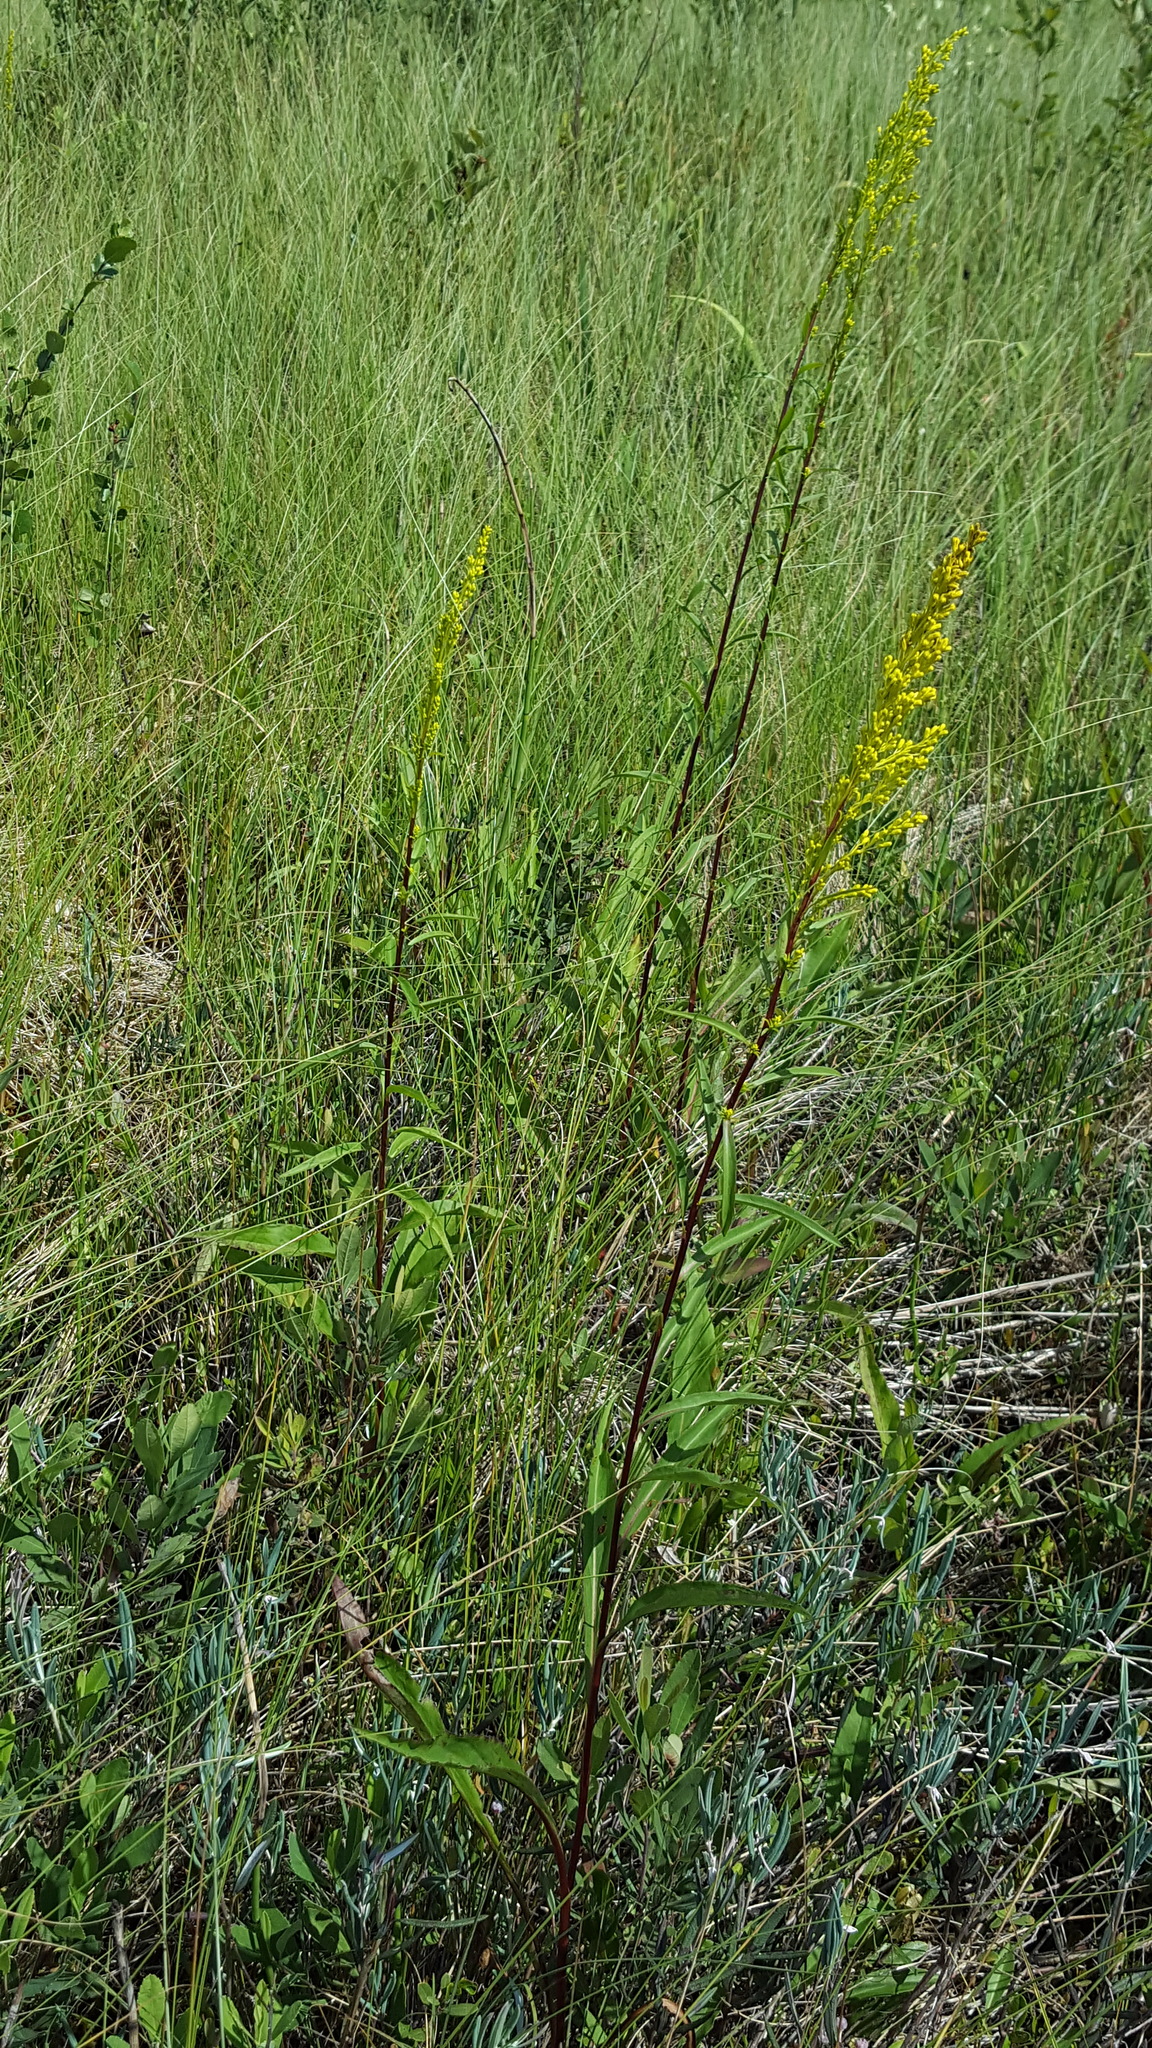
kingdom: Plantae
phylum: Tracheophyta
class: Magnoliopsida
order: Asterales
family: Asteraceae
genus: Solidago
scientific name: Solidago uliginosa
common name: Bog goldenrod
